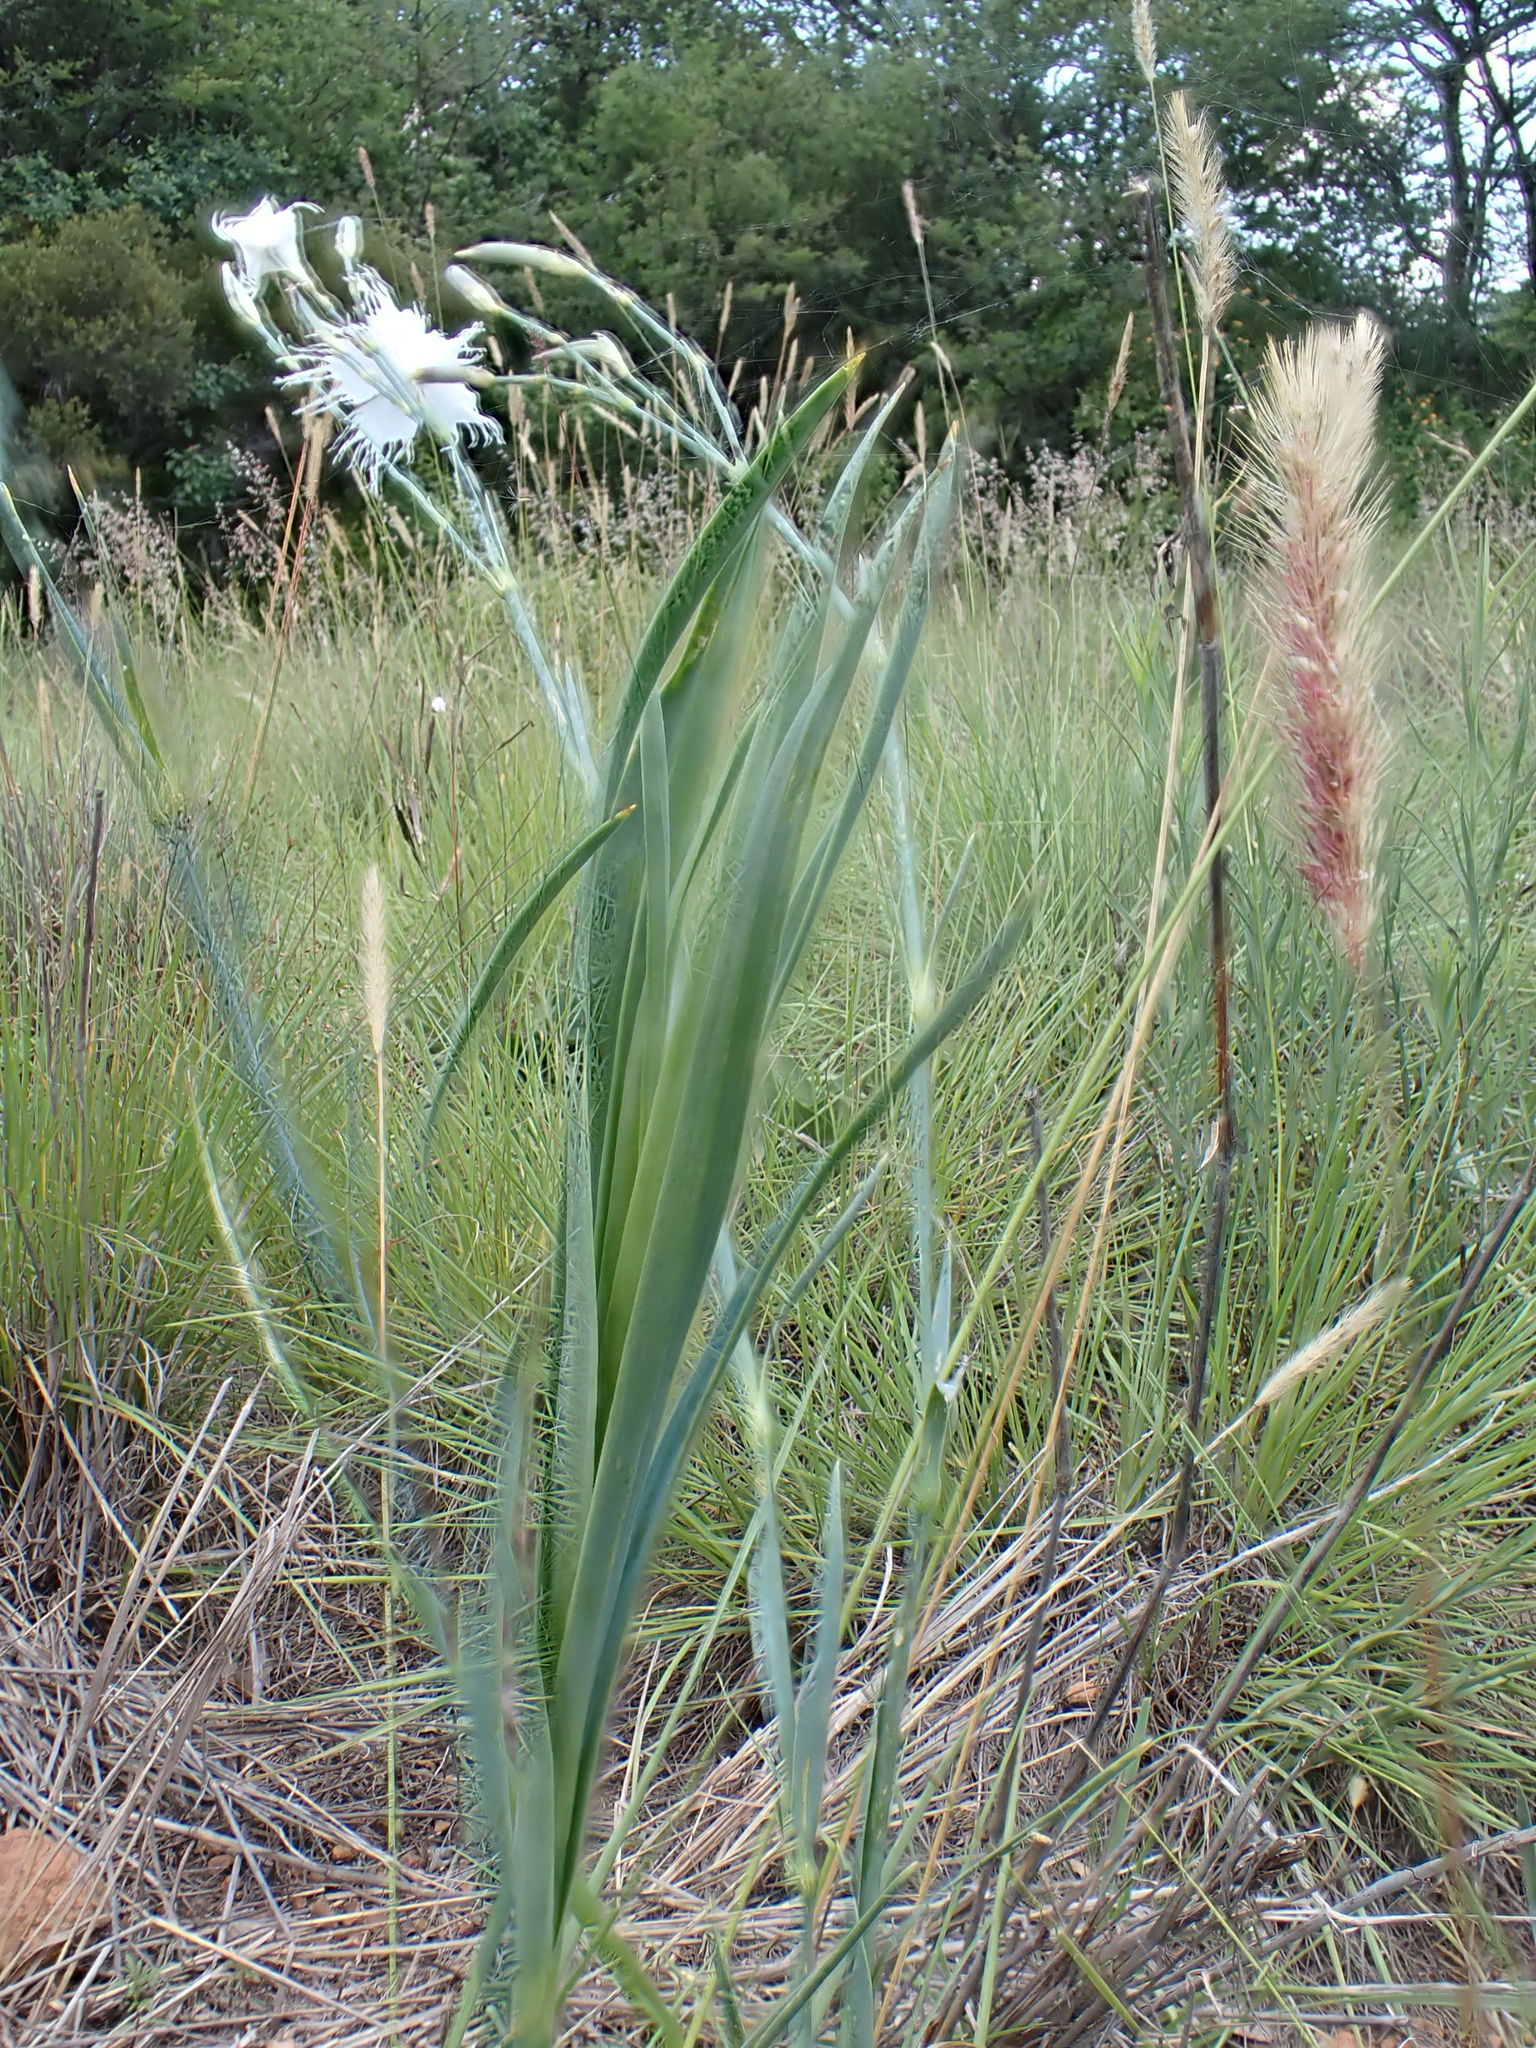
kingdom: Plantae
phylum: Tracheophyta
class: Magnoliopsida
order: Caryophyllales
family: Caryophyllaceae
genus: Dianthus
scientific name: Dianthus mooiensis
